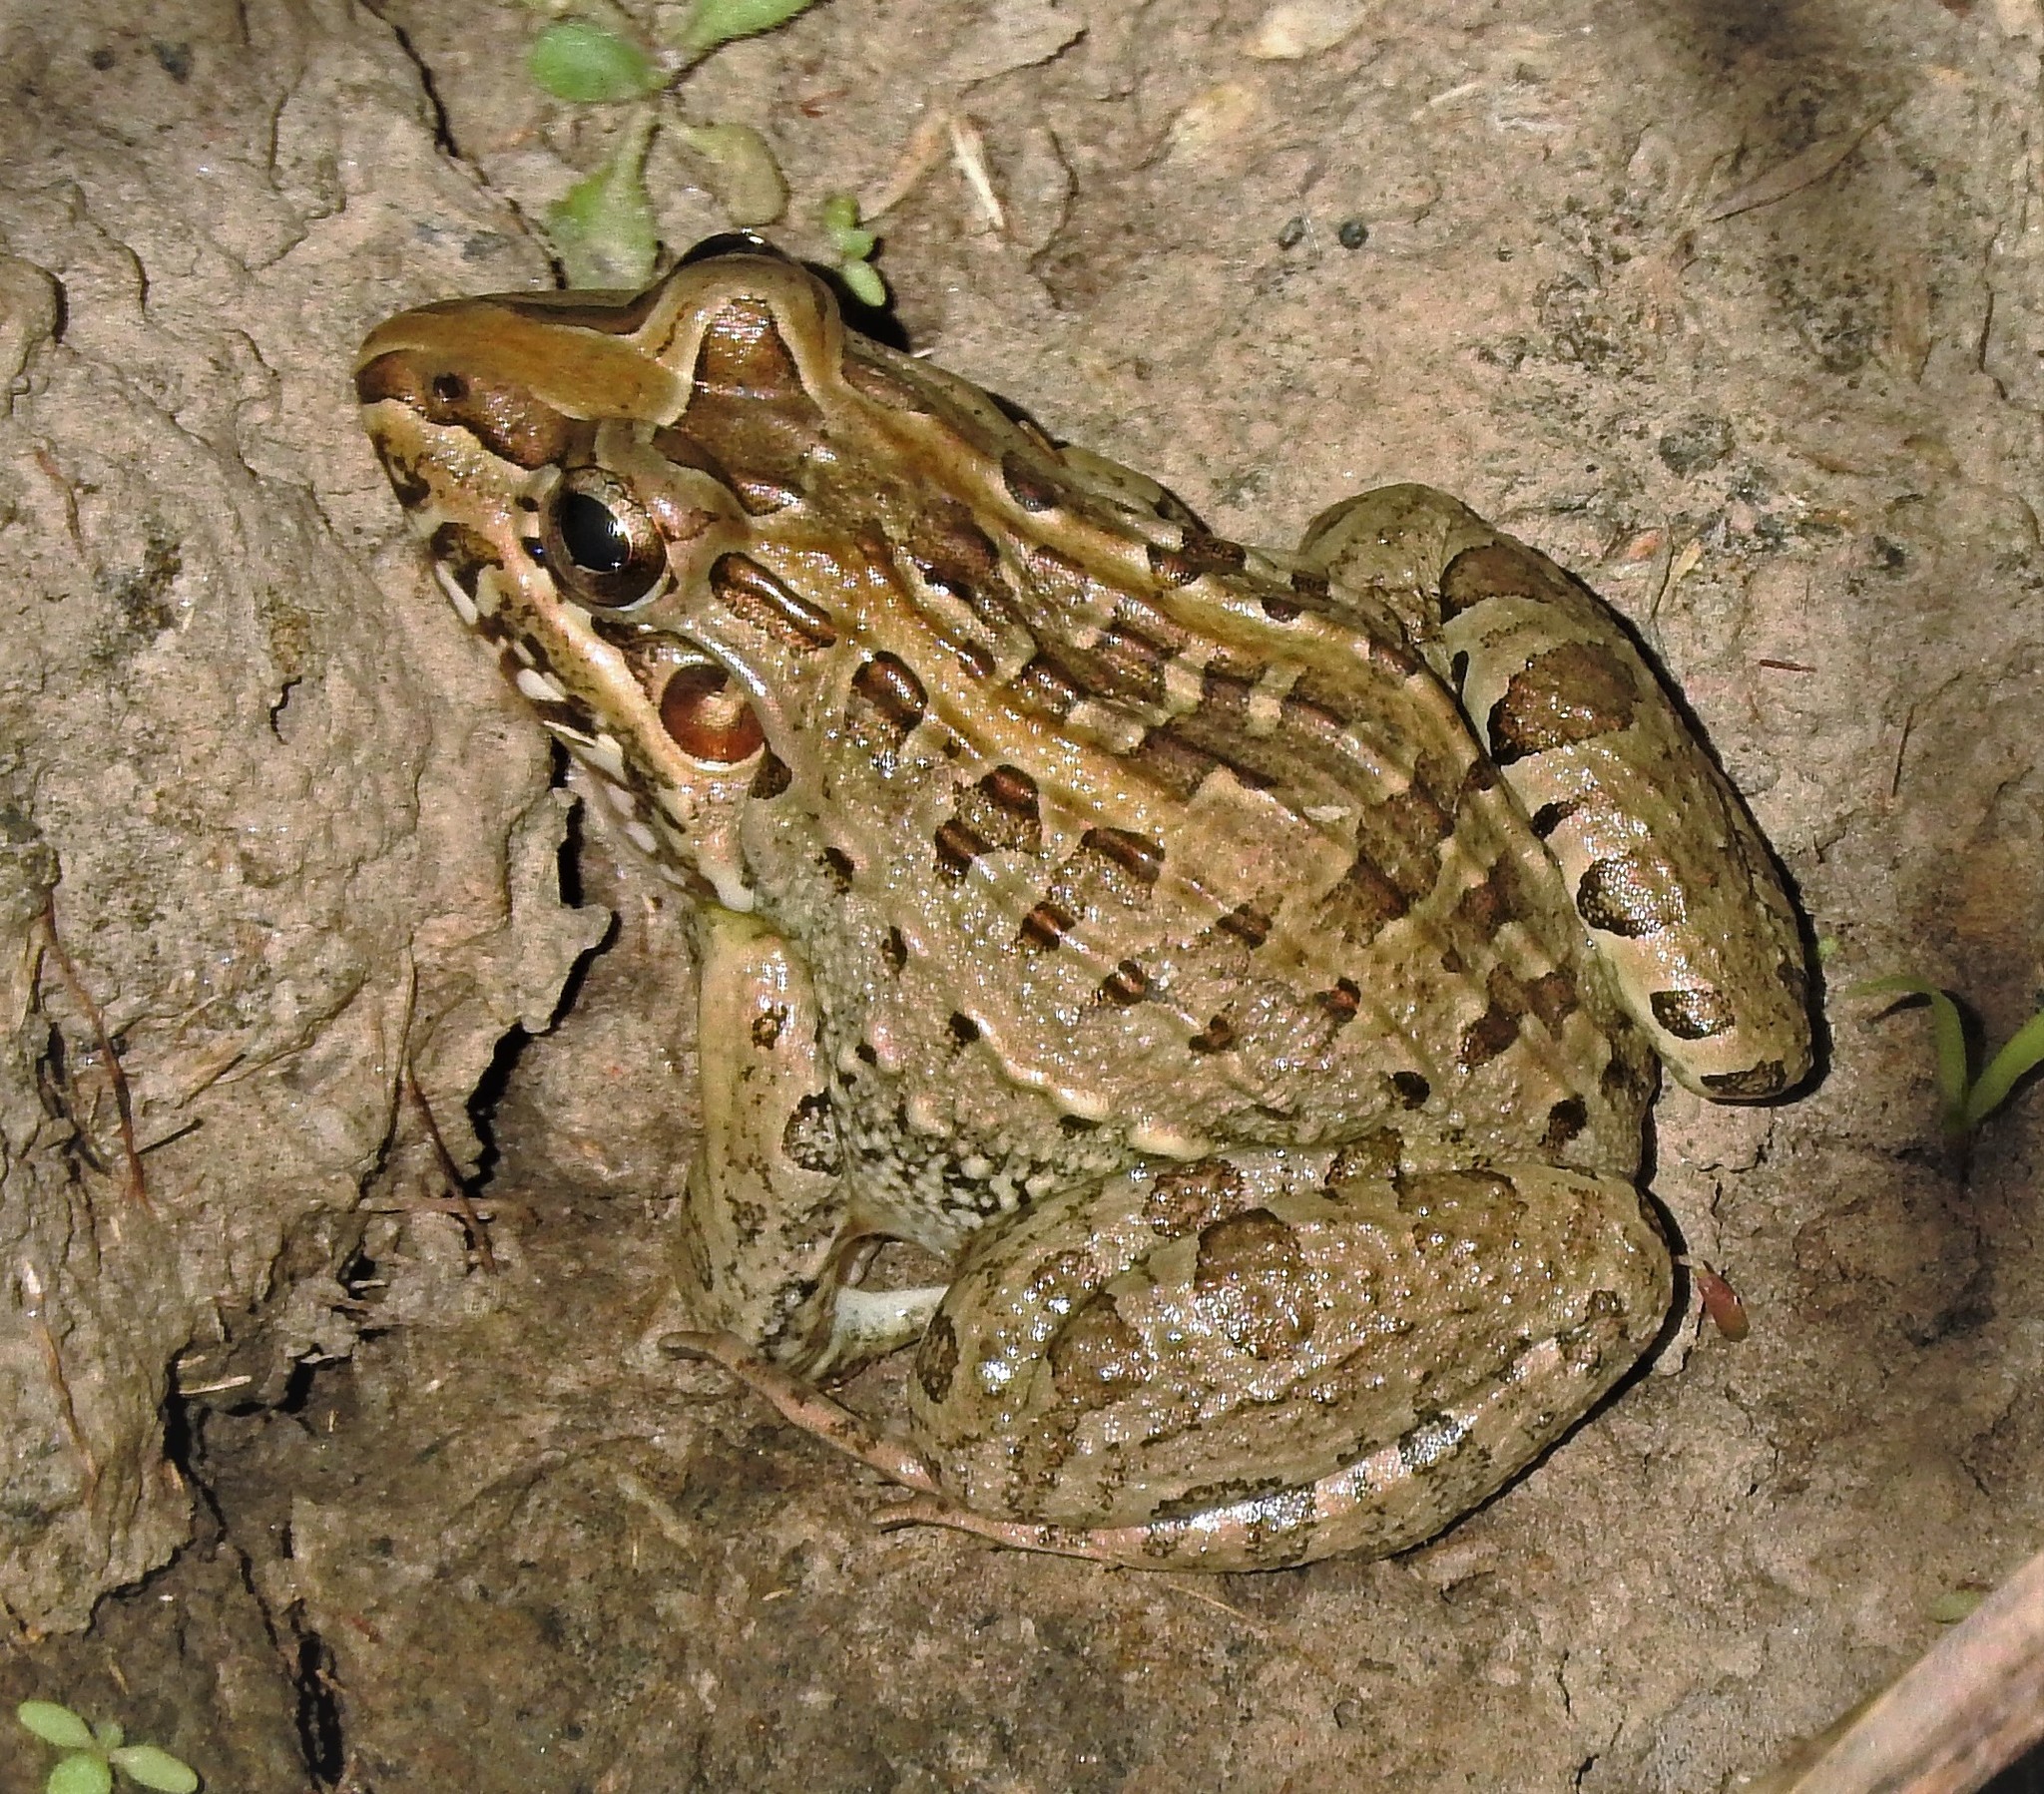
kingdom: Animalia
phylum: Chordata
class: Amphibia
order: Anura
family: Leptodactylidae
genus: Leptodactylus
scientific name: Leptodactylus macrosternum
